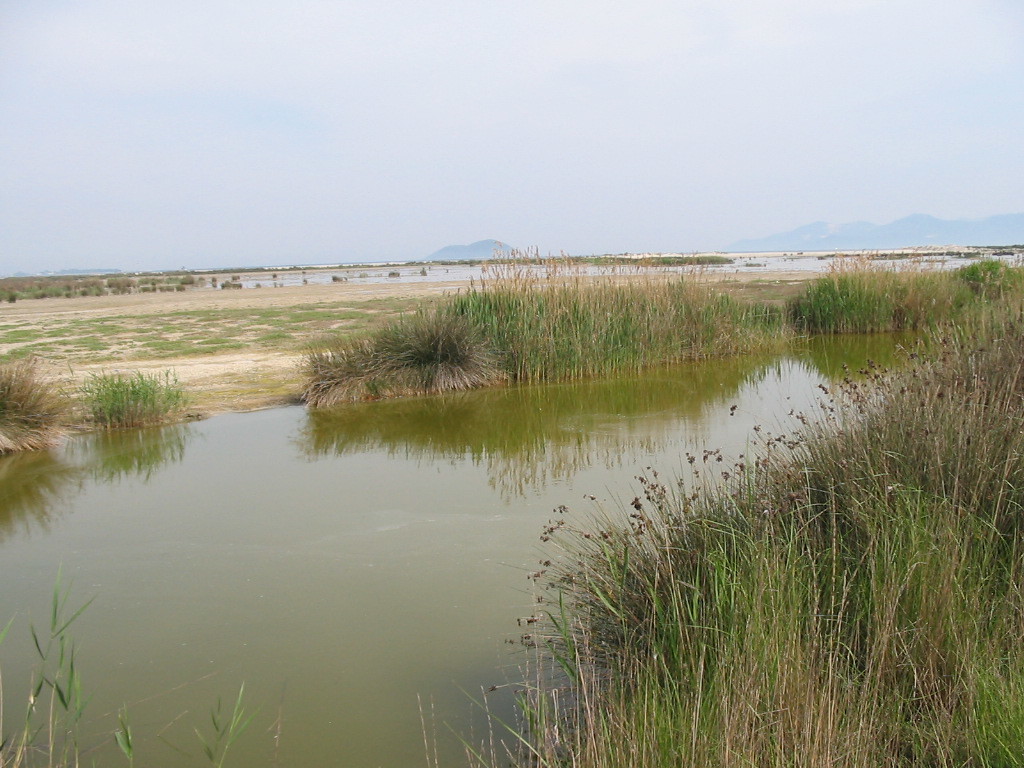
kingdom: Plantae
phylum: Tracheophyta
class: Liliopsida
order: Poales
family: Poaceae
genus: Phragmites
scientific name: Phragmites australis
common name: Common reed
